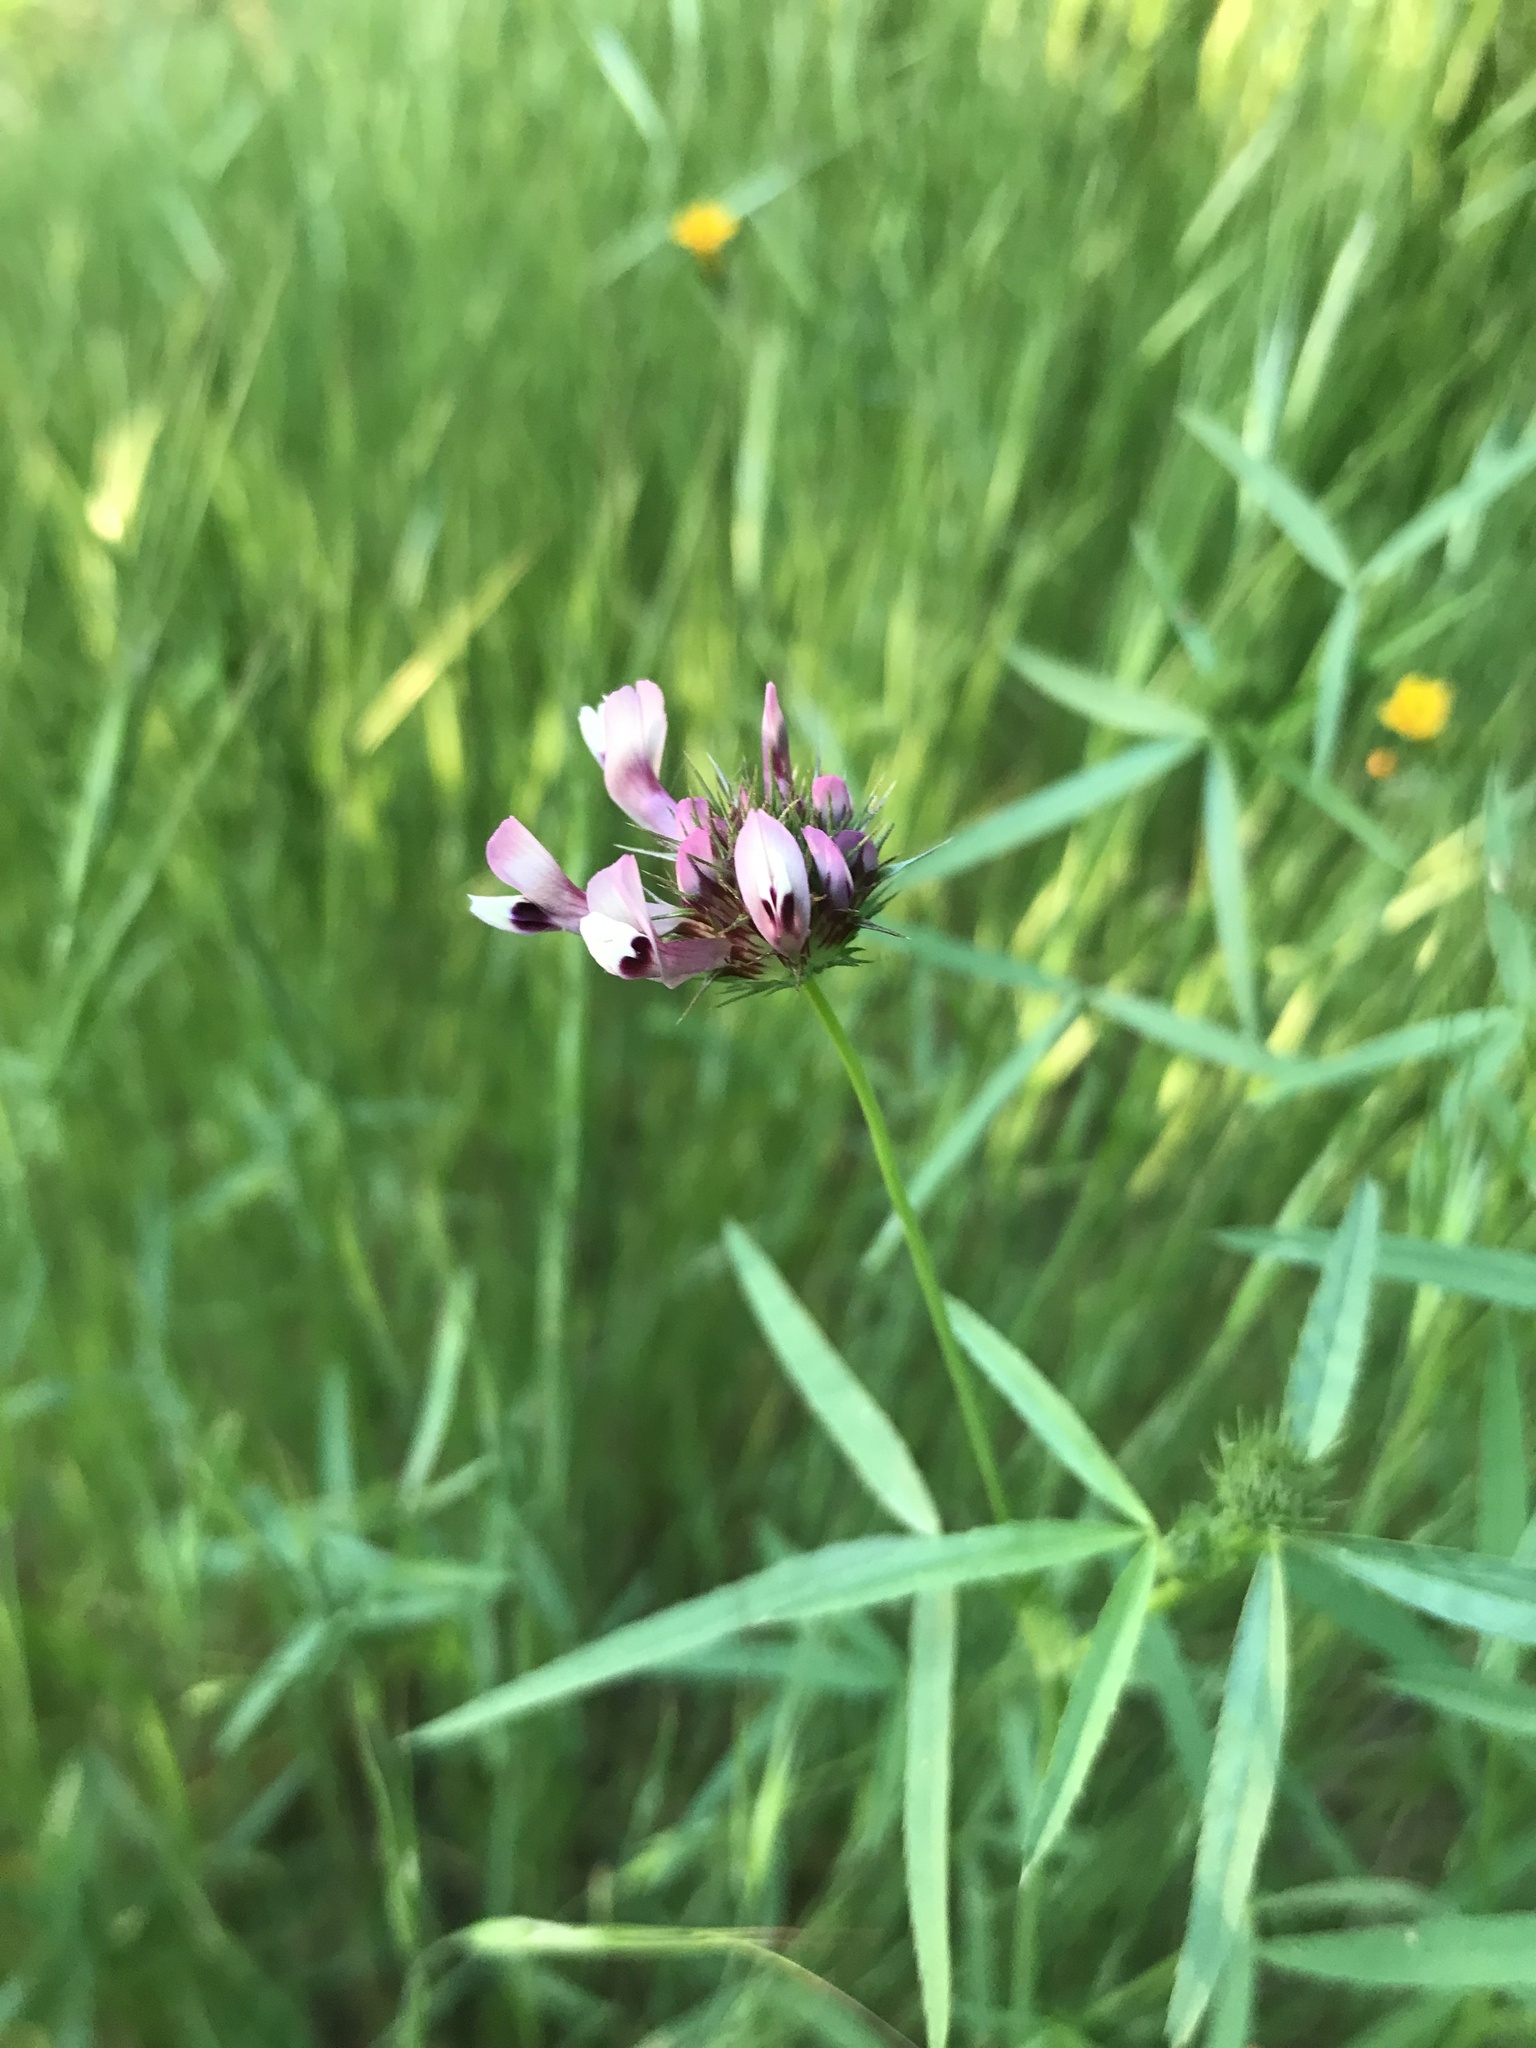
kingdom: Plantae
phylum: Tracheophyta
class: Magnoliopsida
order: Fabales
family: Fabaceae
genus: Trifolium
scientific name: Trifolium willdenovii
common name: Tomcat clover
